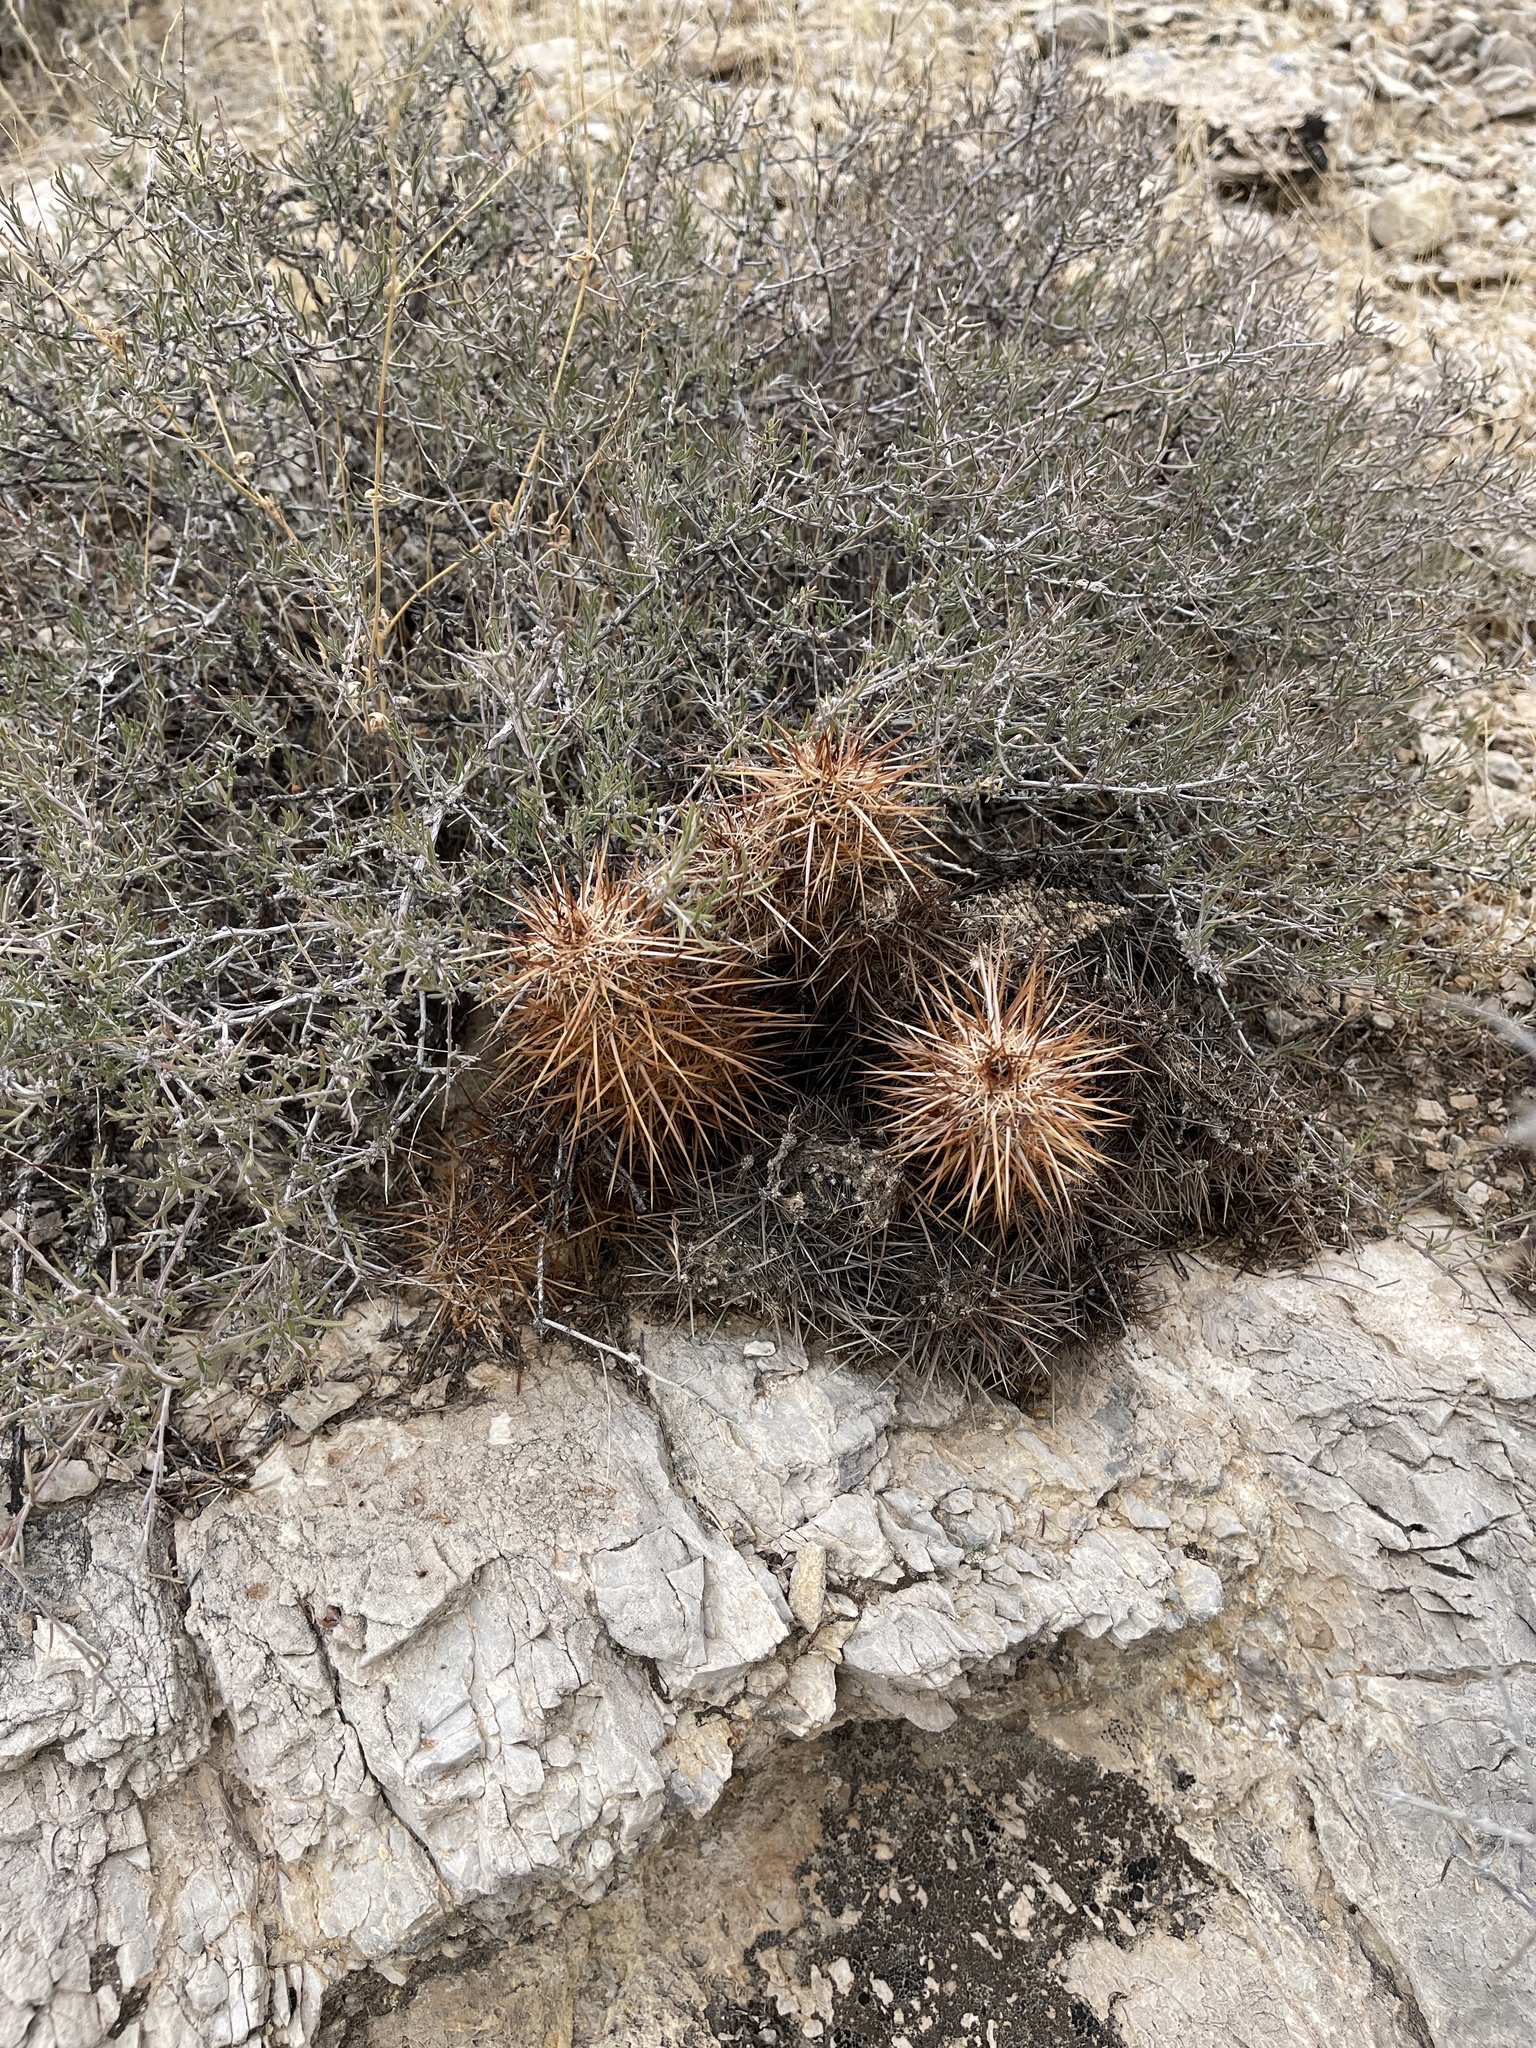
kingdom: Plantae
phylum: Tracheophyta
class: Magnoliopsida
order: Caryophyllales
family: Cactaceae
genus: Echinocereus
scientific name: Echinocereus engelmannii
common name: Engelmann's hedgehog cactus
